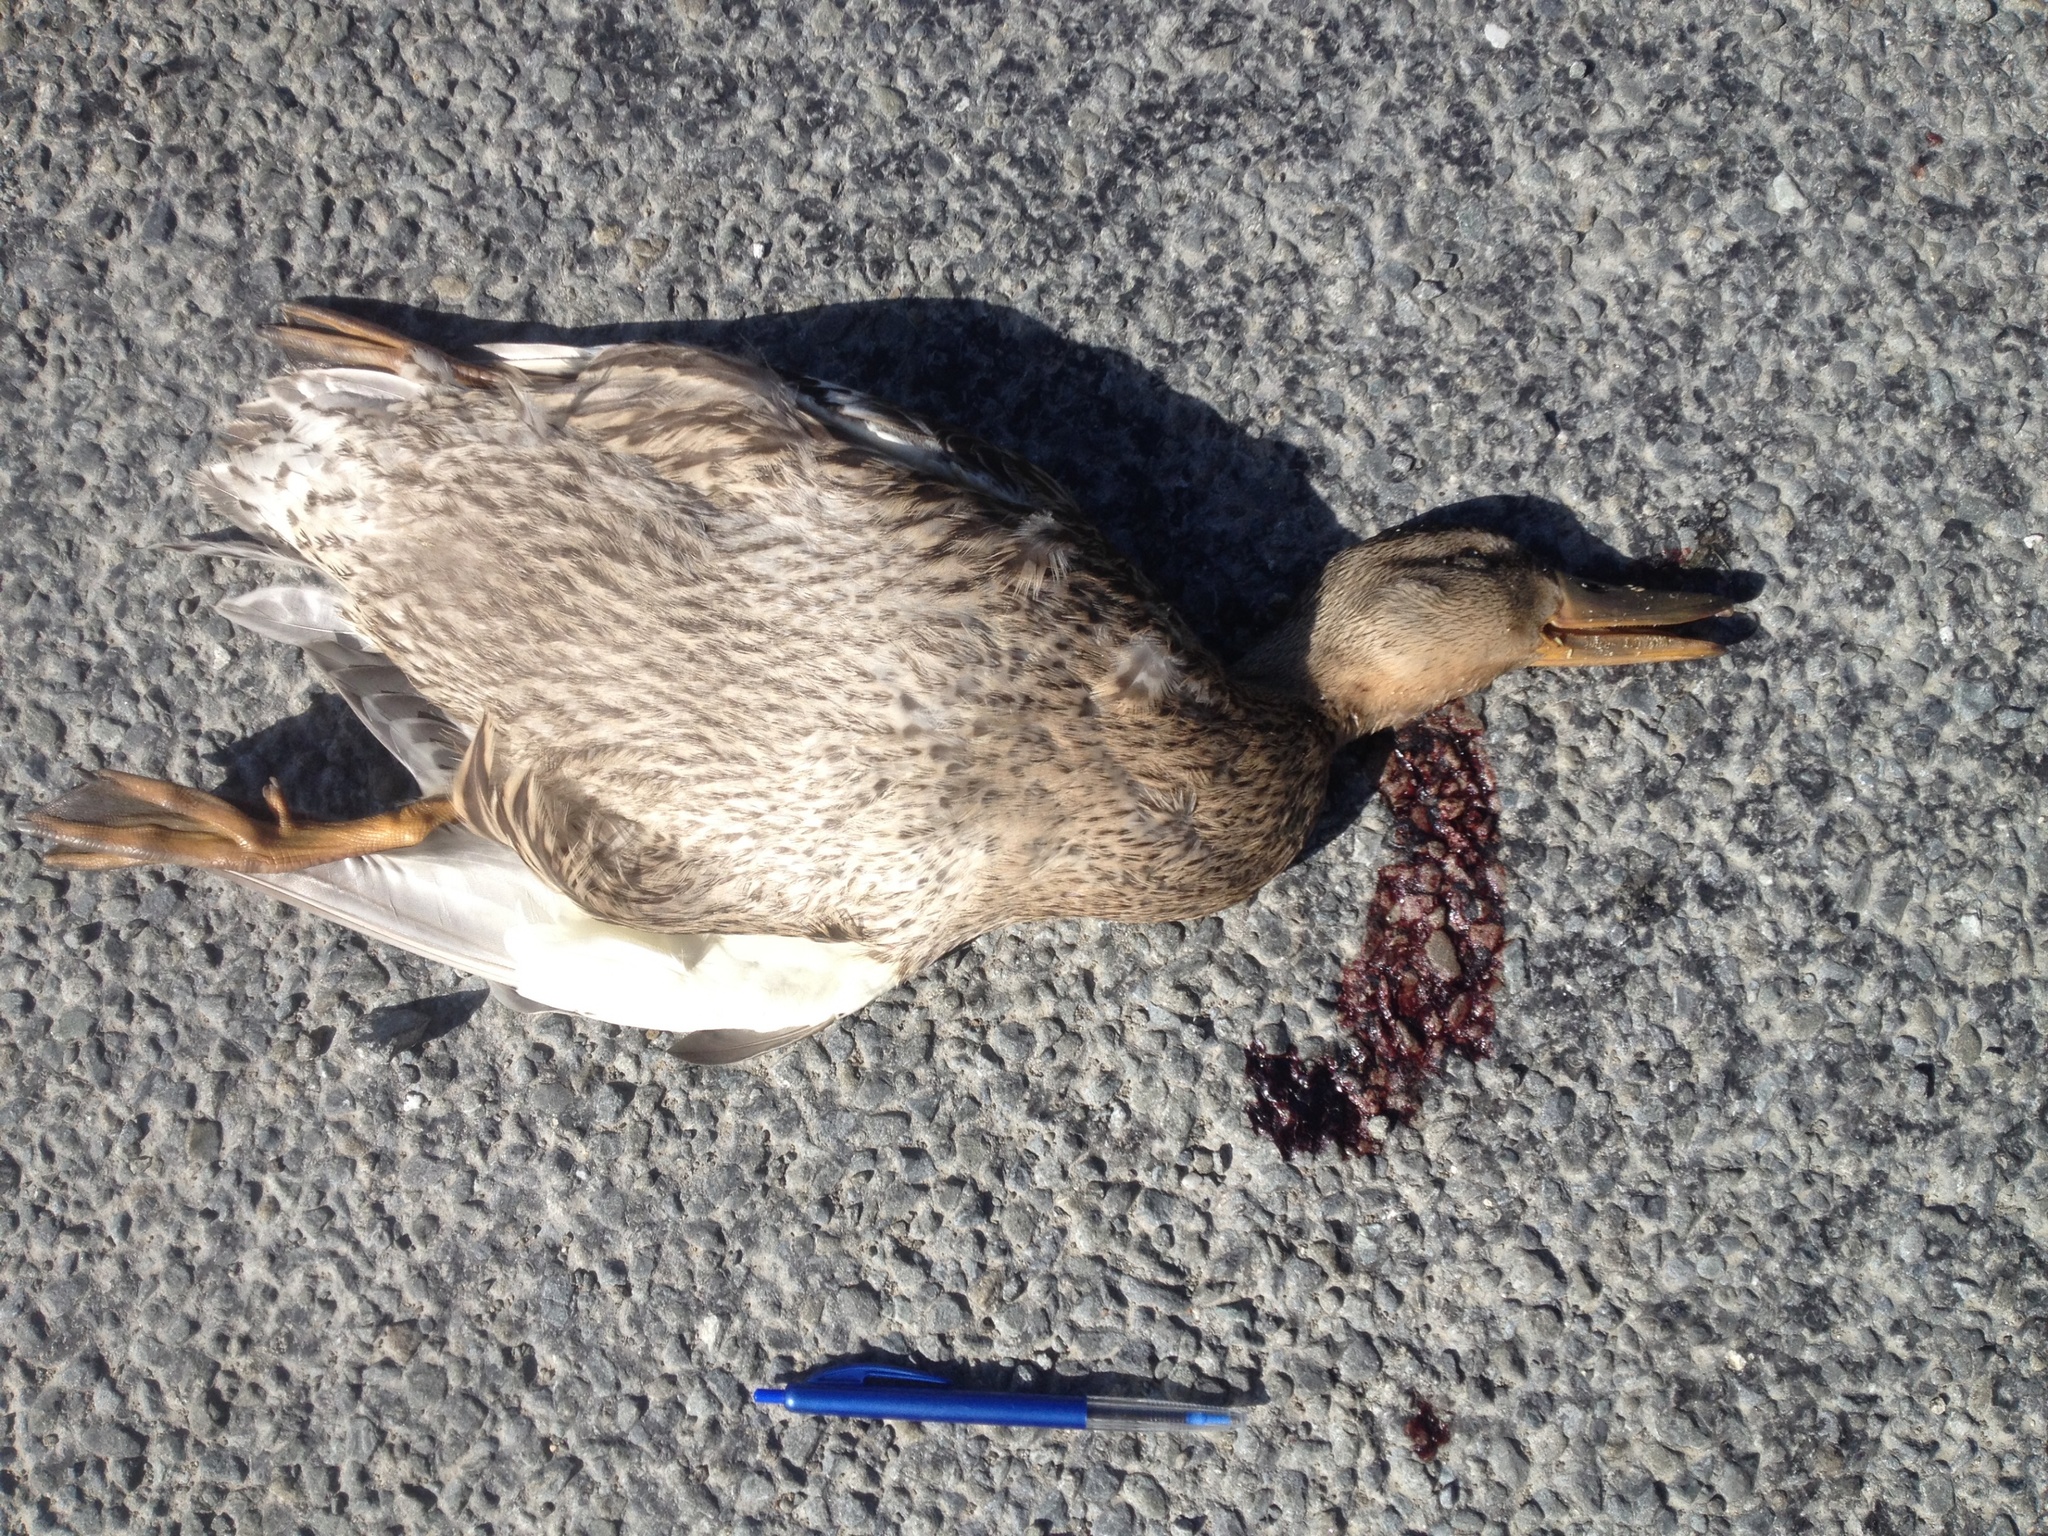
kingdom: Animalia
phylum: Chordata
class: Aves
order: Anseriformes
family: Anatidae
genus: Anas
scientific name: Anas platyrhynchos
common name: Mallard
